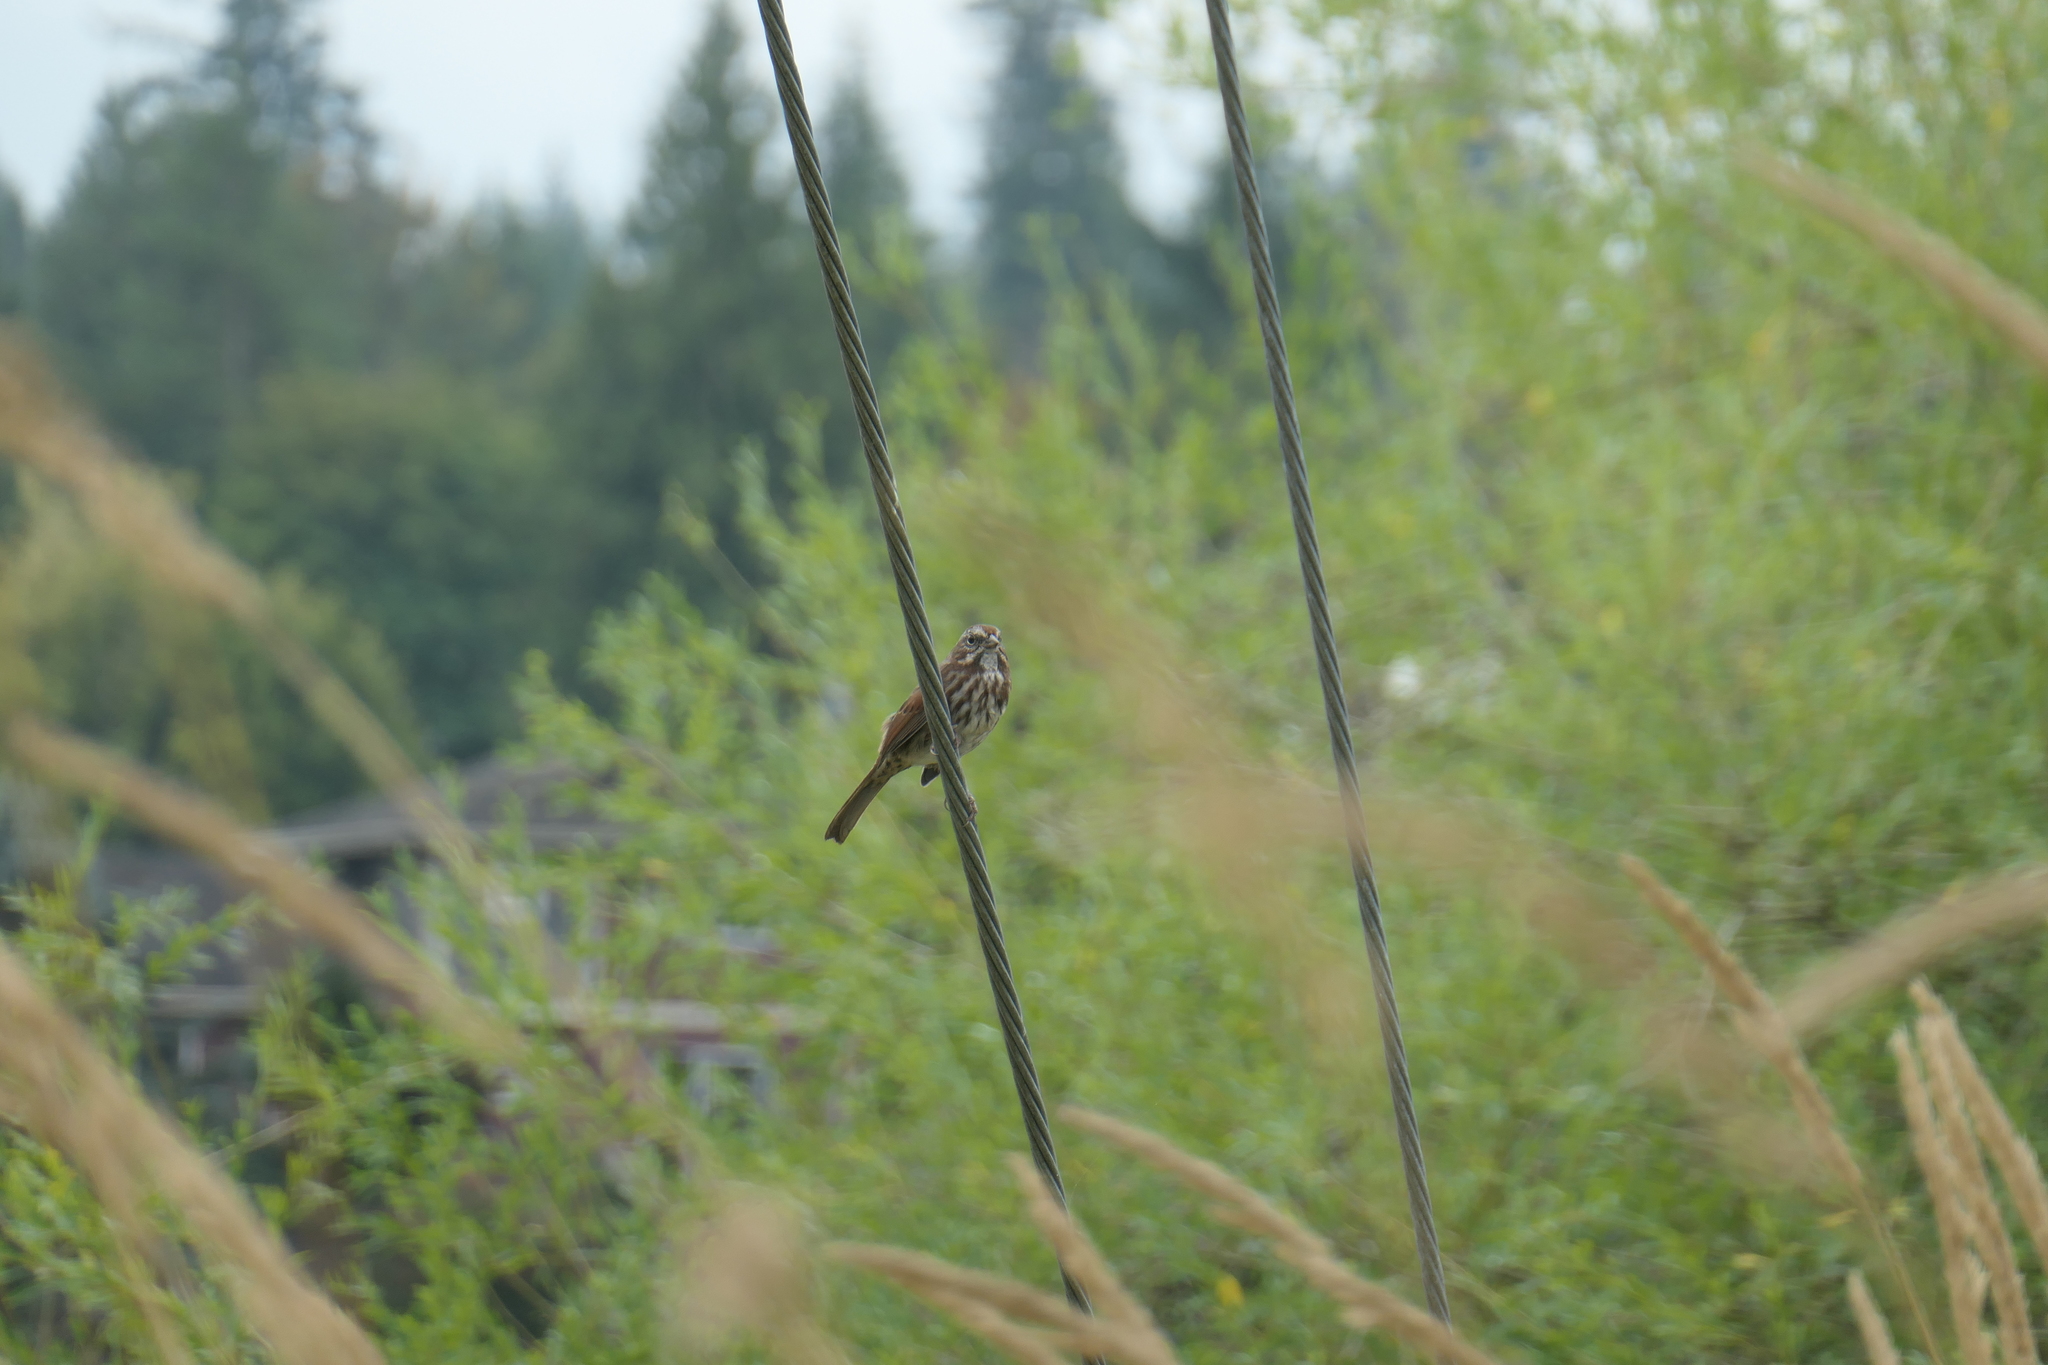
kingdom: Animalia
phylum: Chordata
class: Aves
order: Passeriformes
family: Passerellidae
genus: Melospiza
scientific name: Melospiza melodia
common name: Song sparrow
